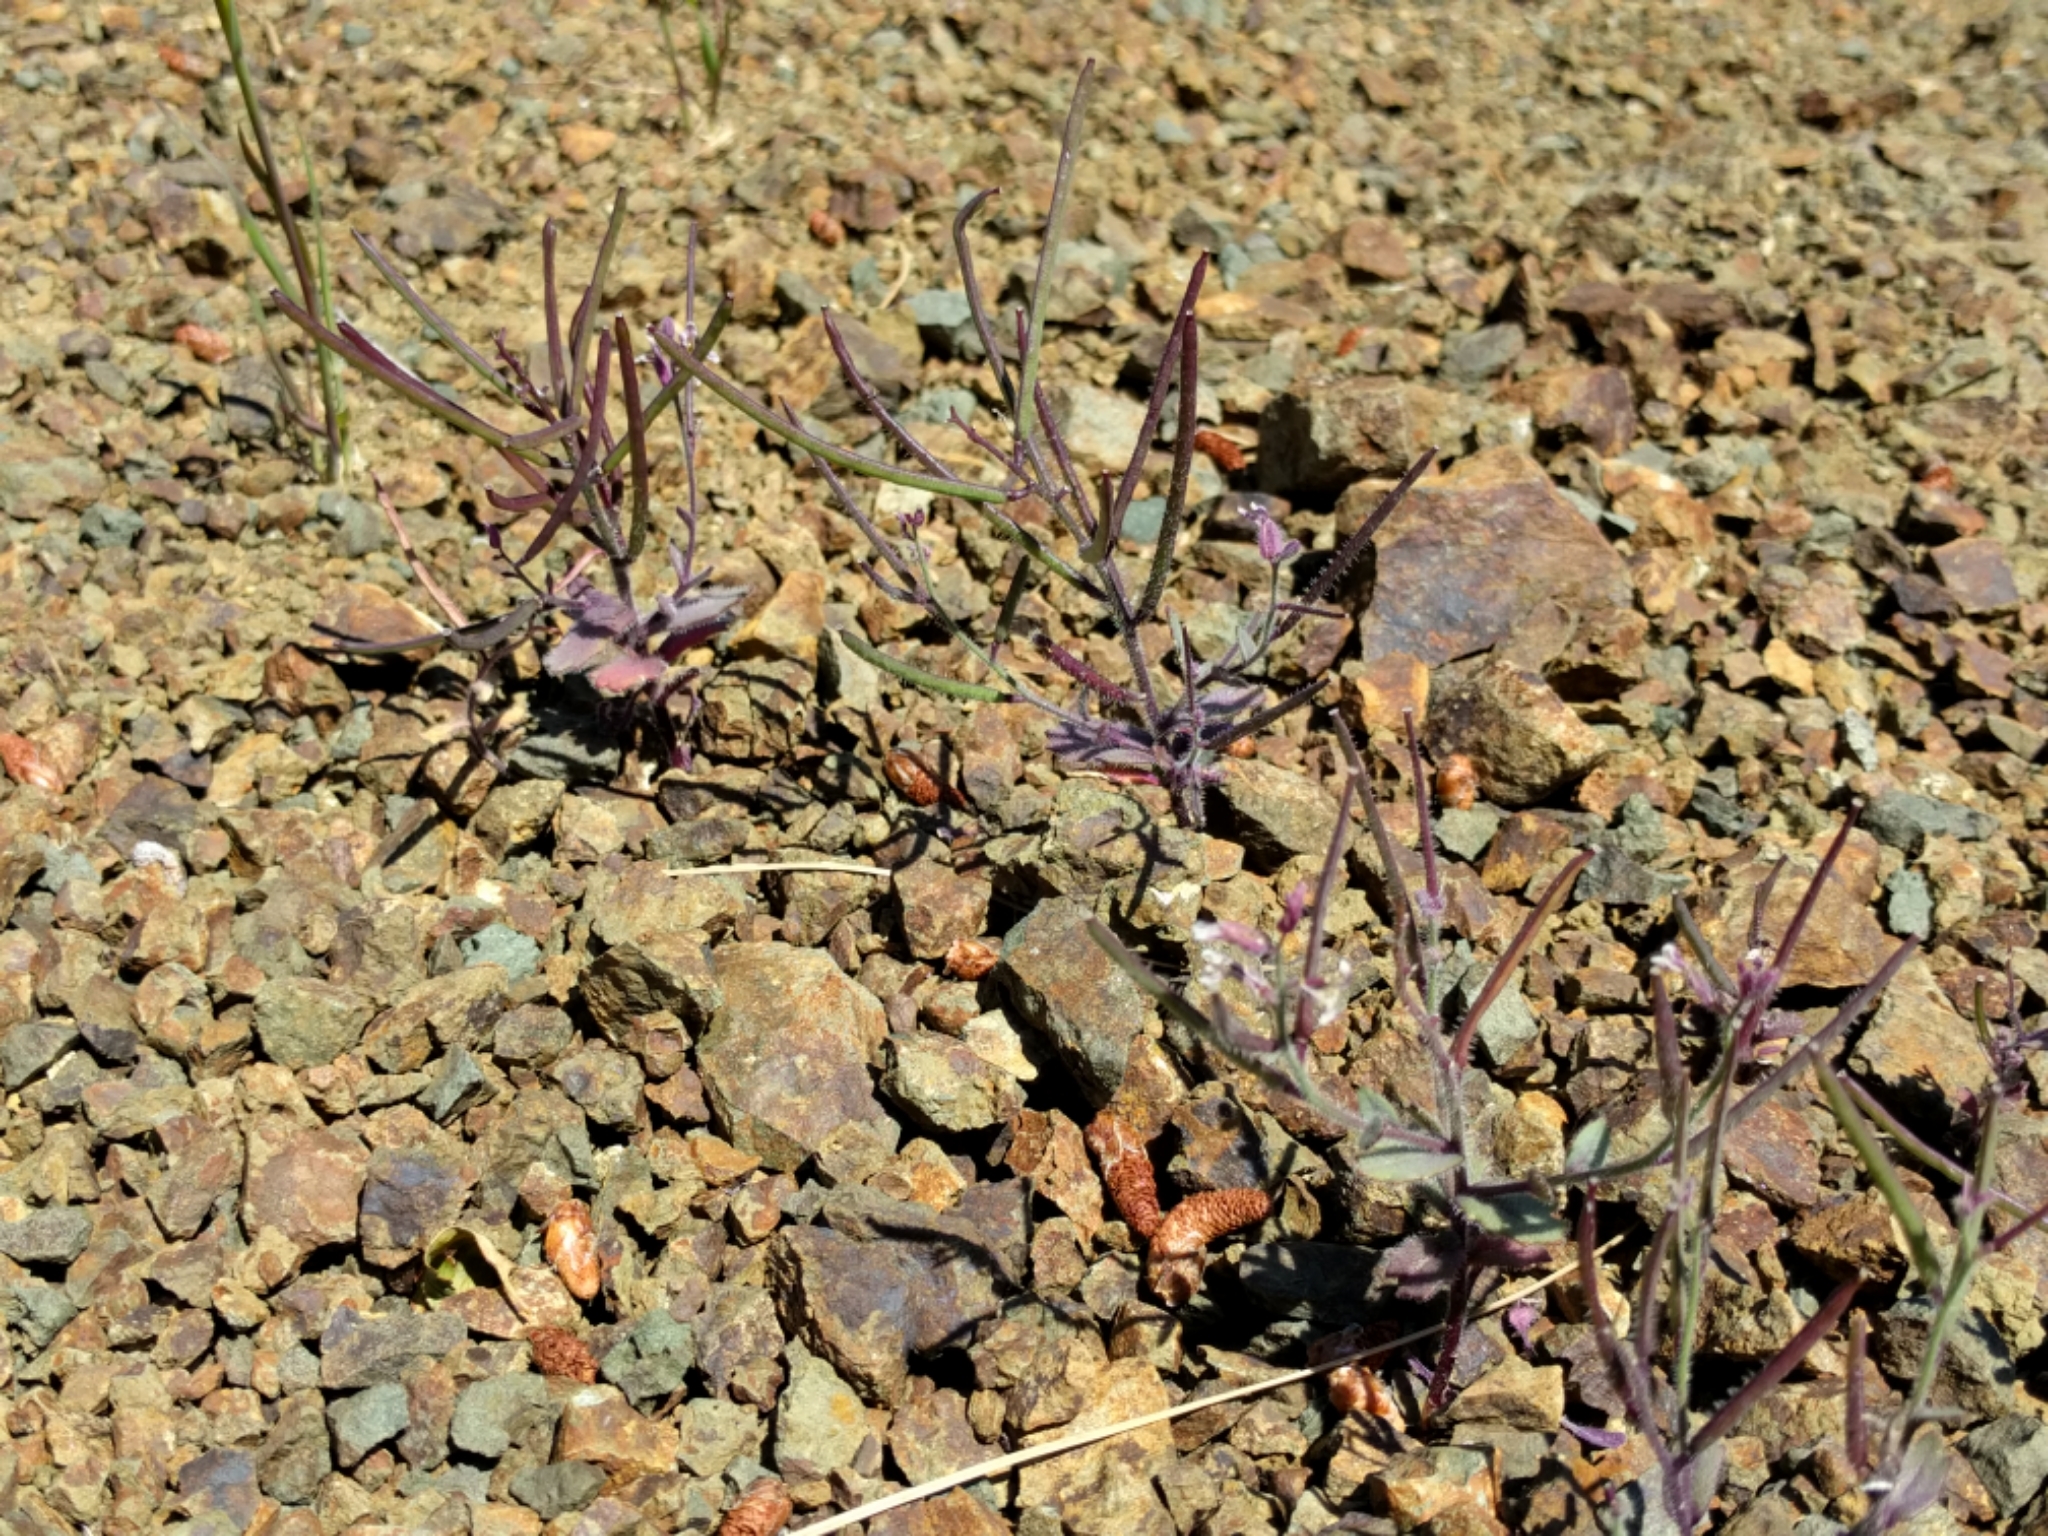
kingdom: Plantae
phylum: Tracheophyta
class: Magnoliopsida
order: Brassicales
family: Brassicaceae
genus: Streptanthus
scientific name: Streptanthus hispidus
